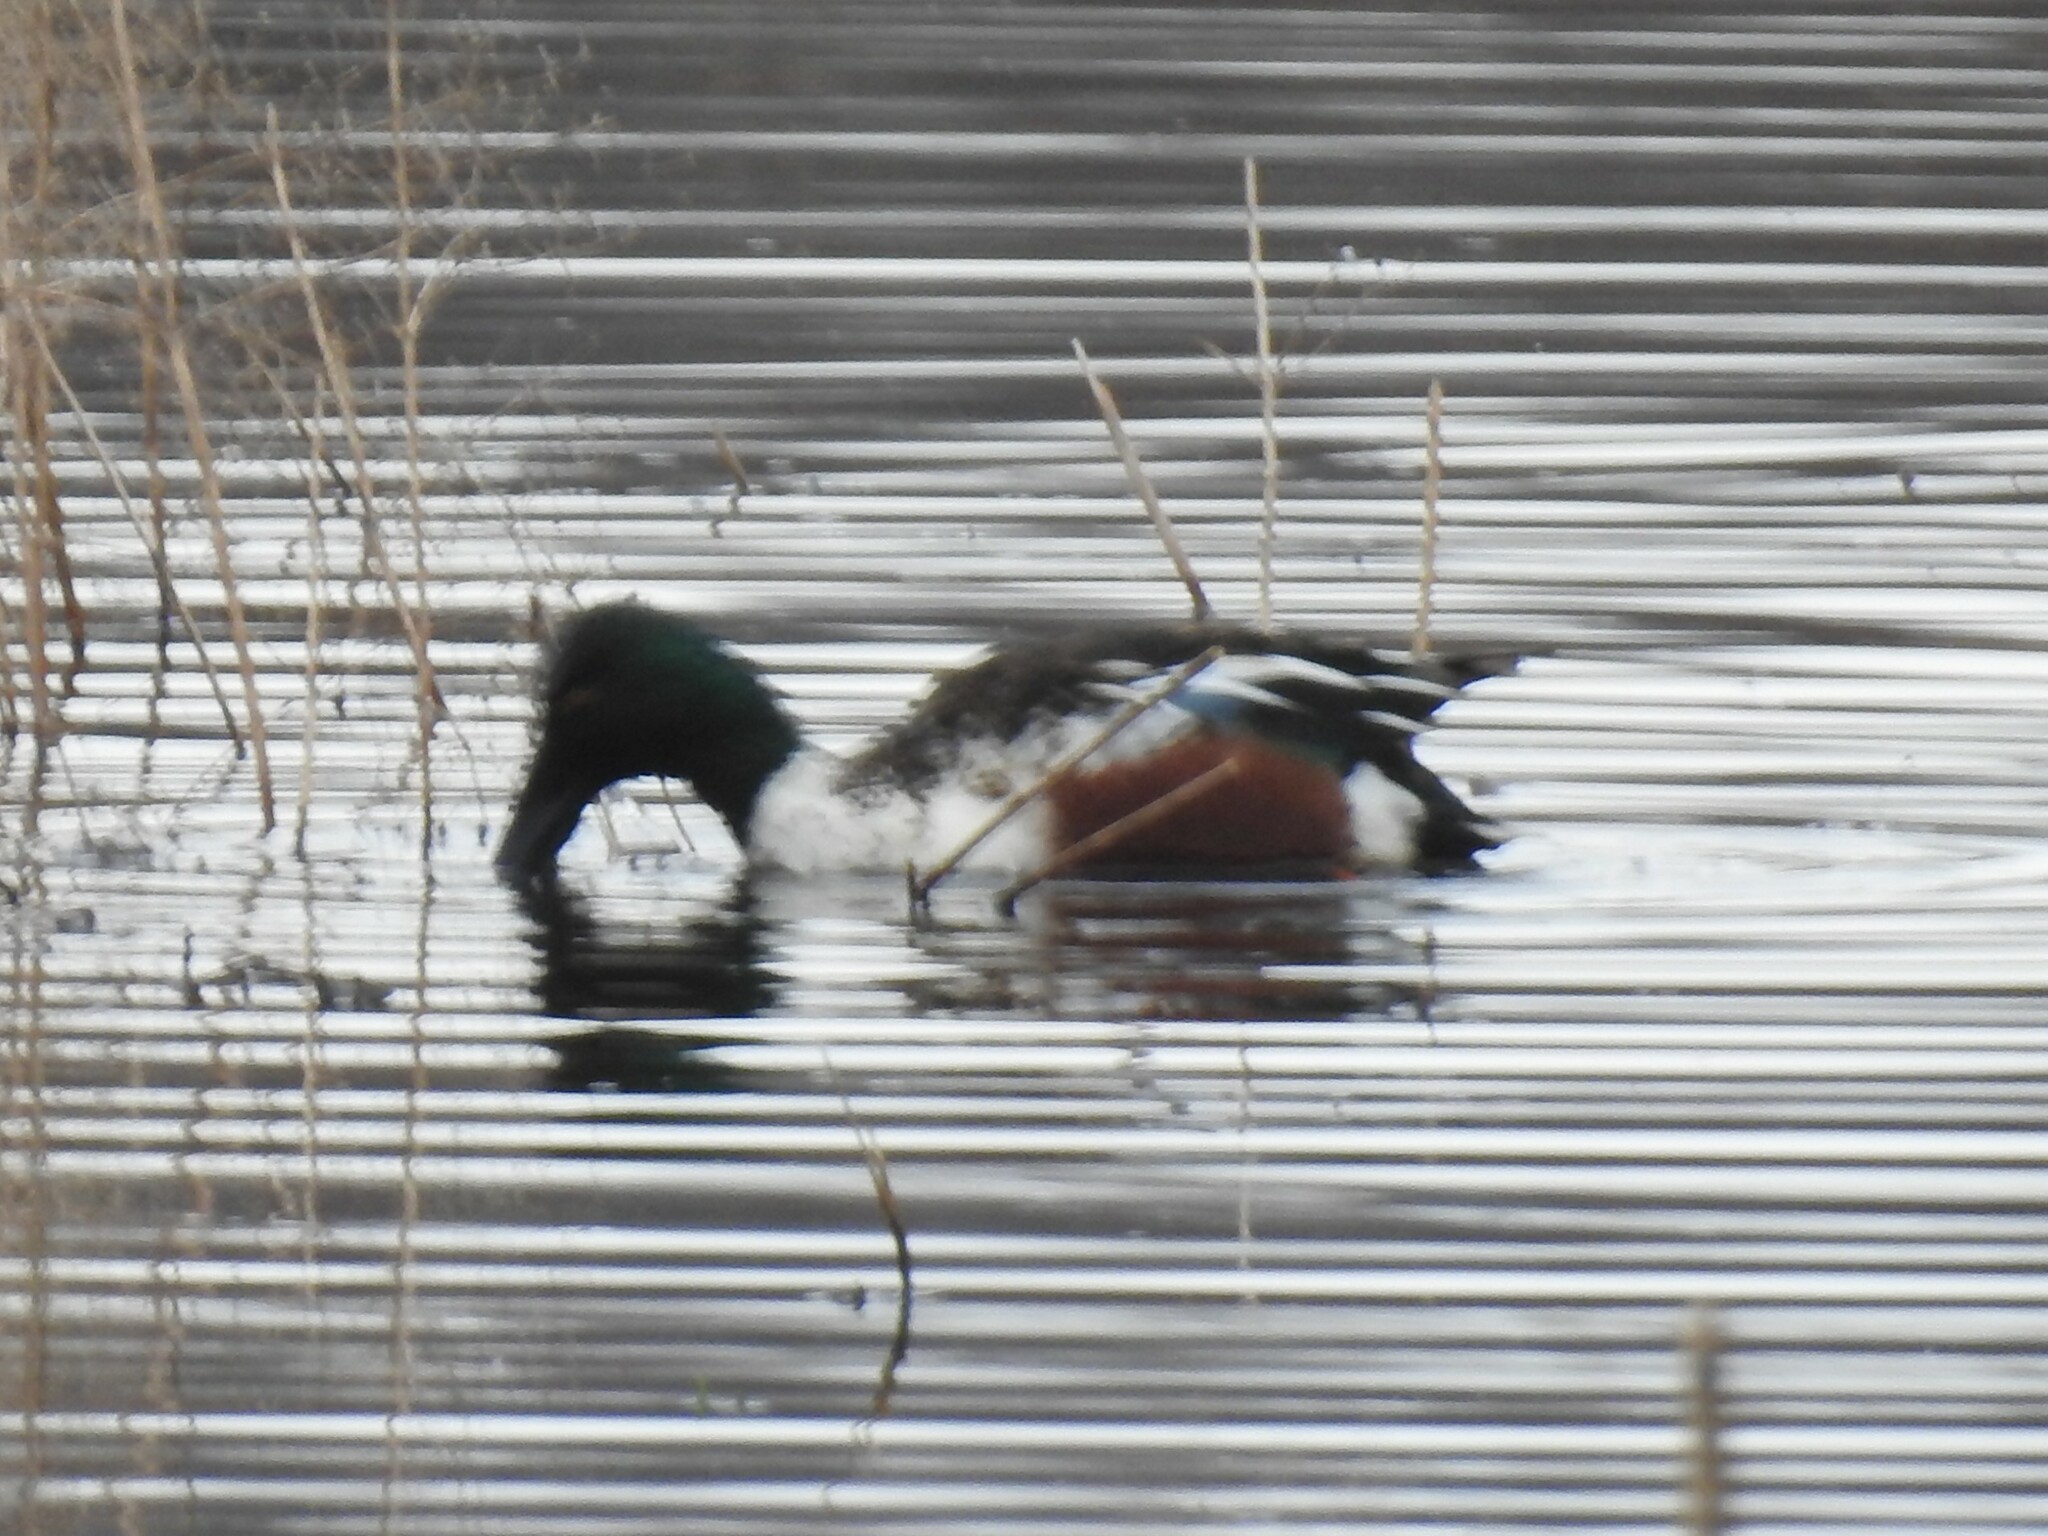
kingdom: Animalia
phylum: Chordata
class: Aves
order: Anseriformes
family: Anatidae
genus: Spatula
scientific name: Spatula clypeata
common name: Northern shoveler
